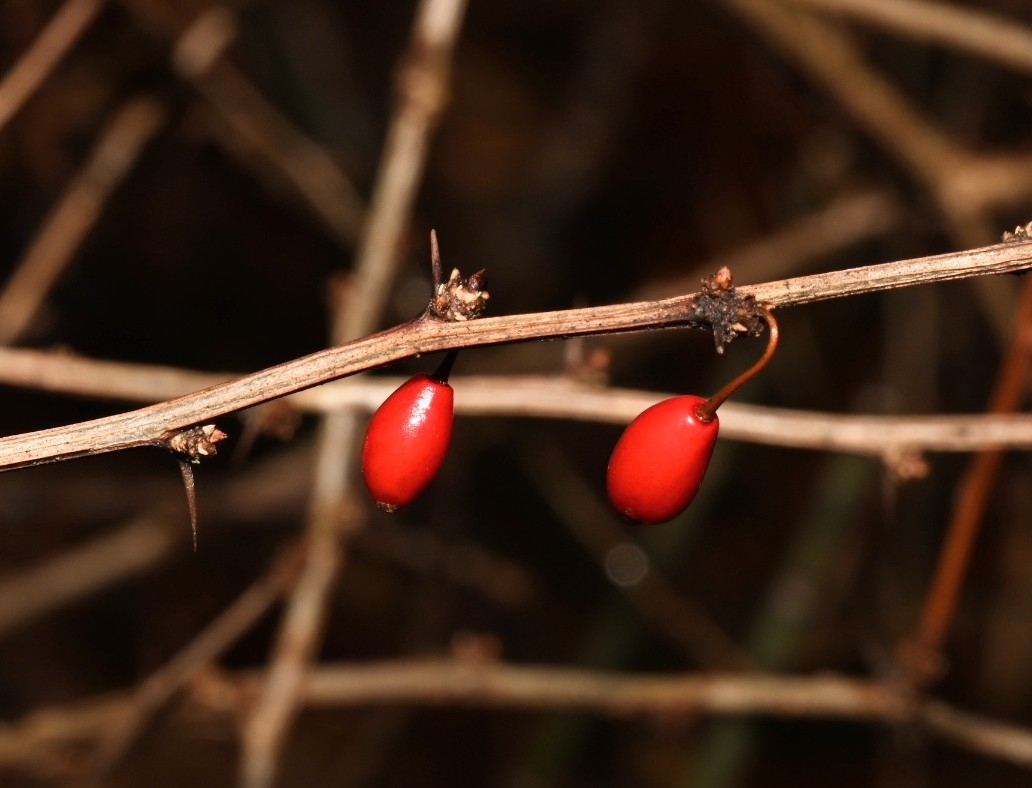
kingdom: Plantae
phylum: Tracheophyta
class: Magnoliopsida
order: Ranunculales
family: Berberidaceae
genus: Berberis
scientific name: Berberis thunbergii
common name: Japanese barberry
